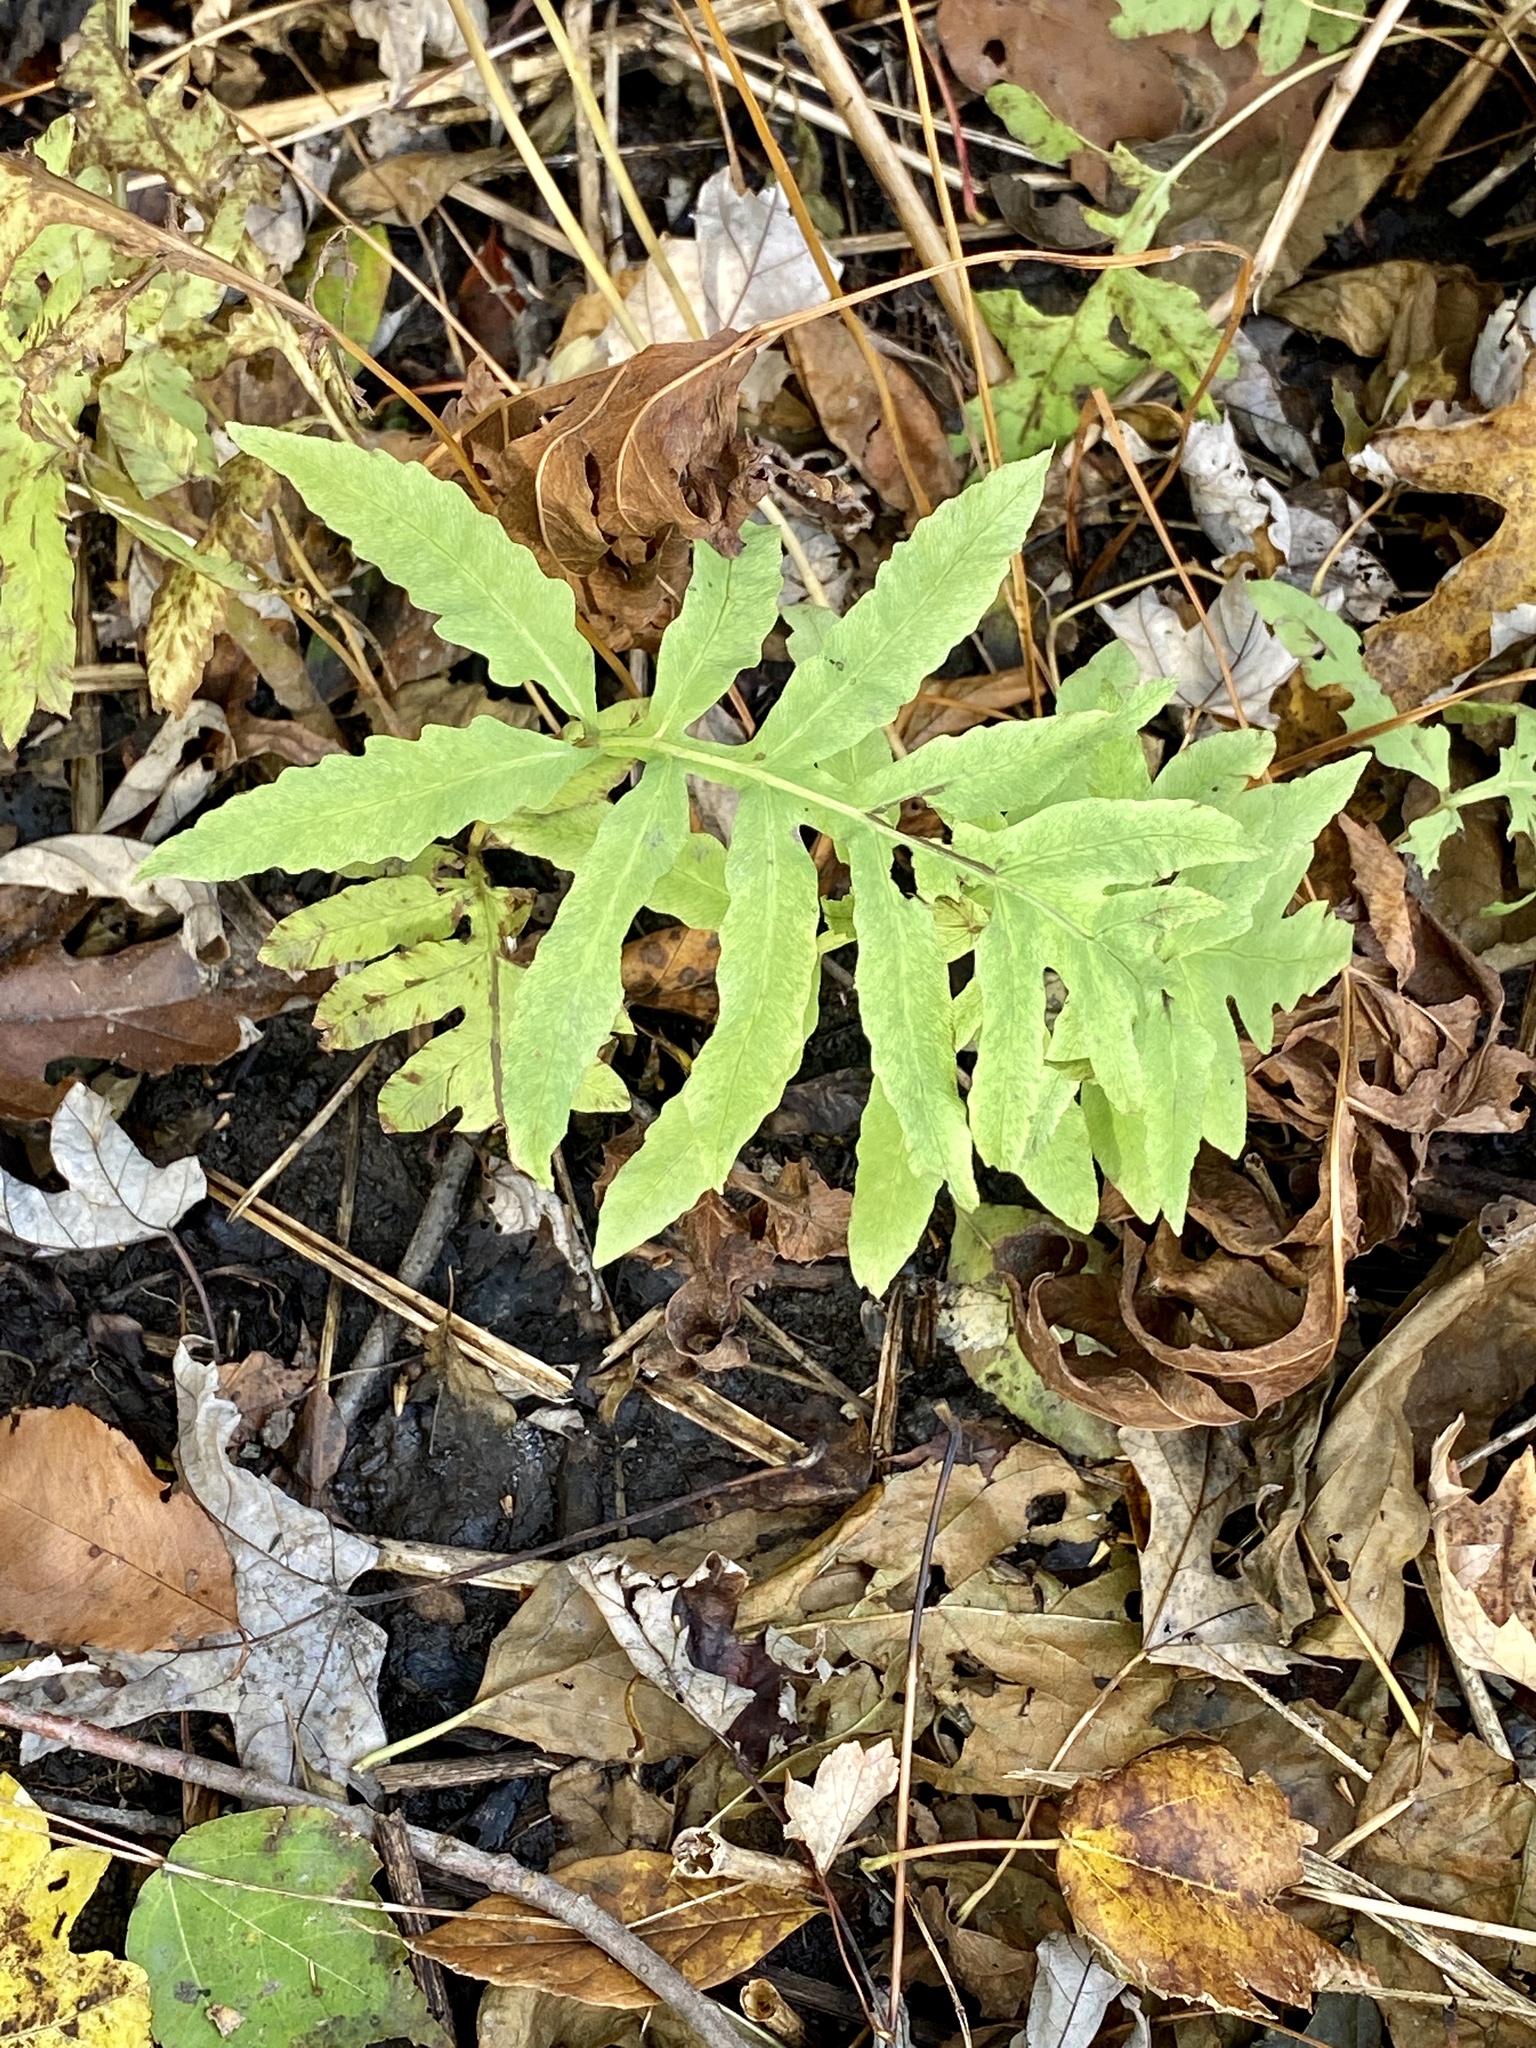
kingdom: Plantae
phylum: Tracheophyta
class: Polypodiopsida
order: Polypodiales
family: Onocleaceae
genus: Onoclea
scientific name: Onoclea sensibilis
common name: Sensitive fern
